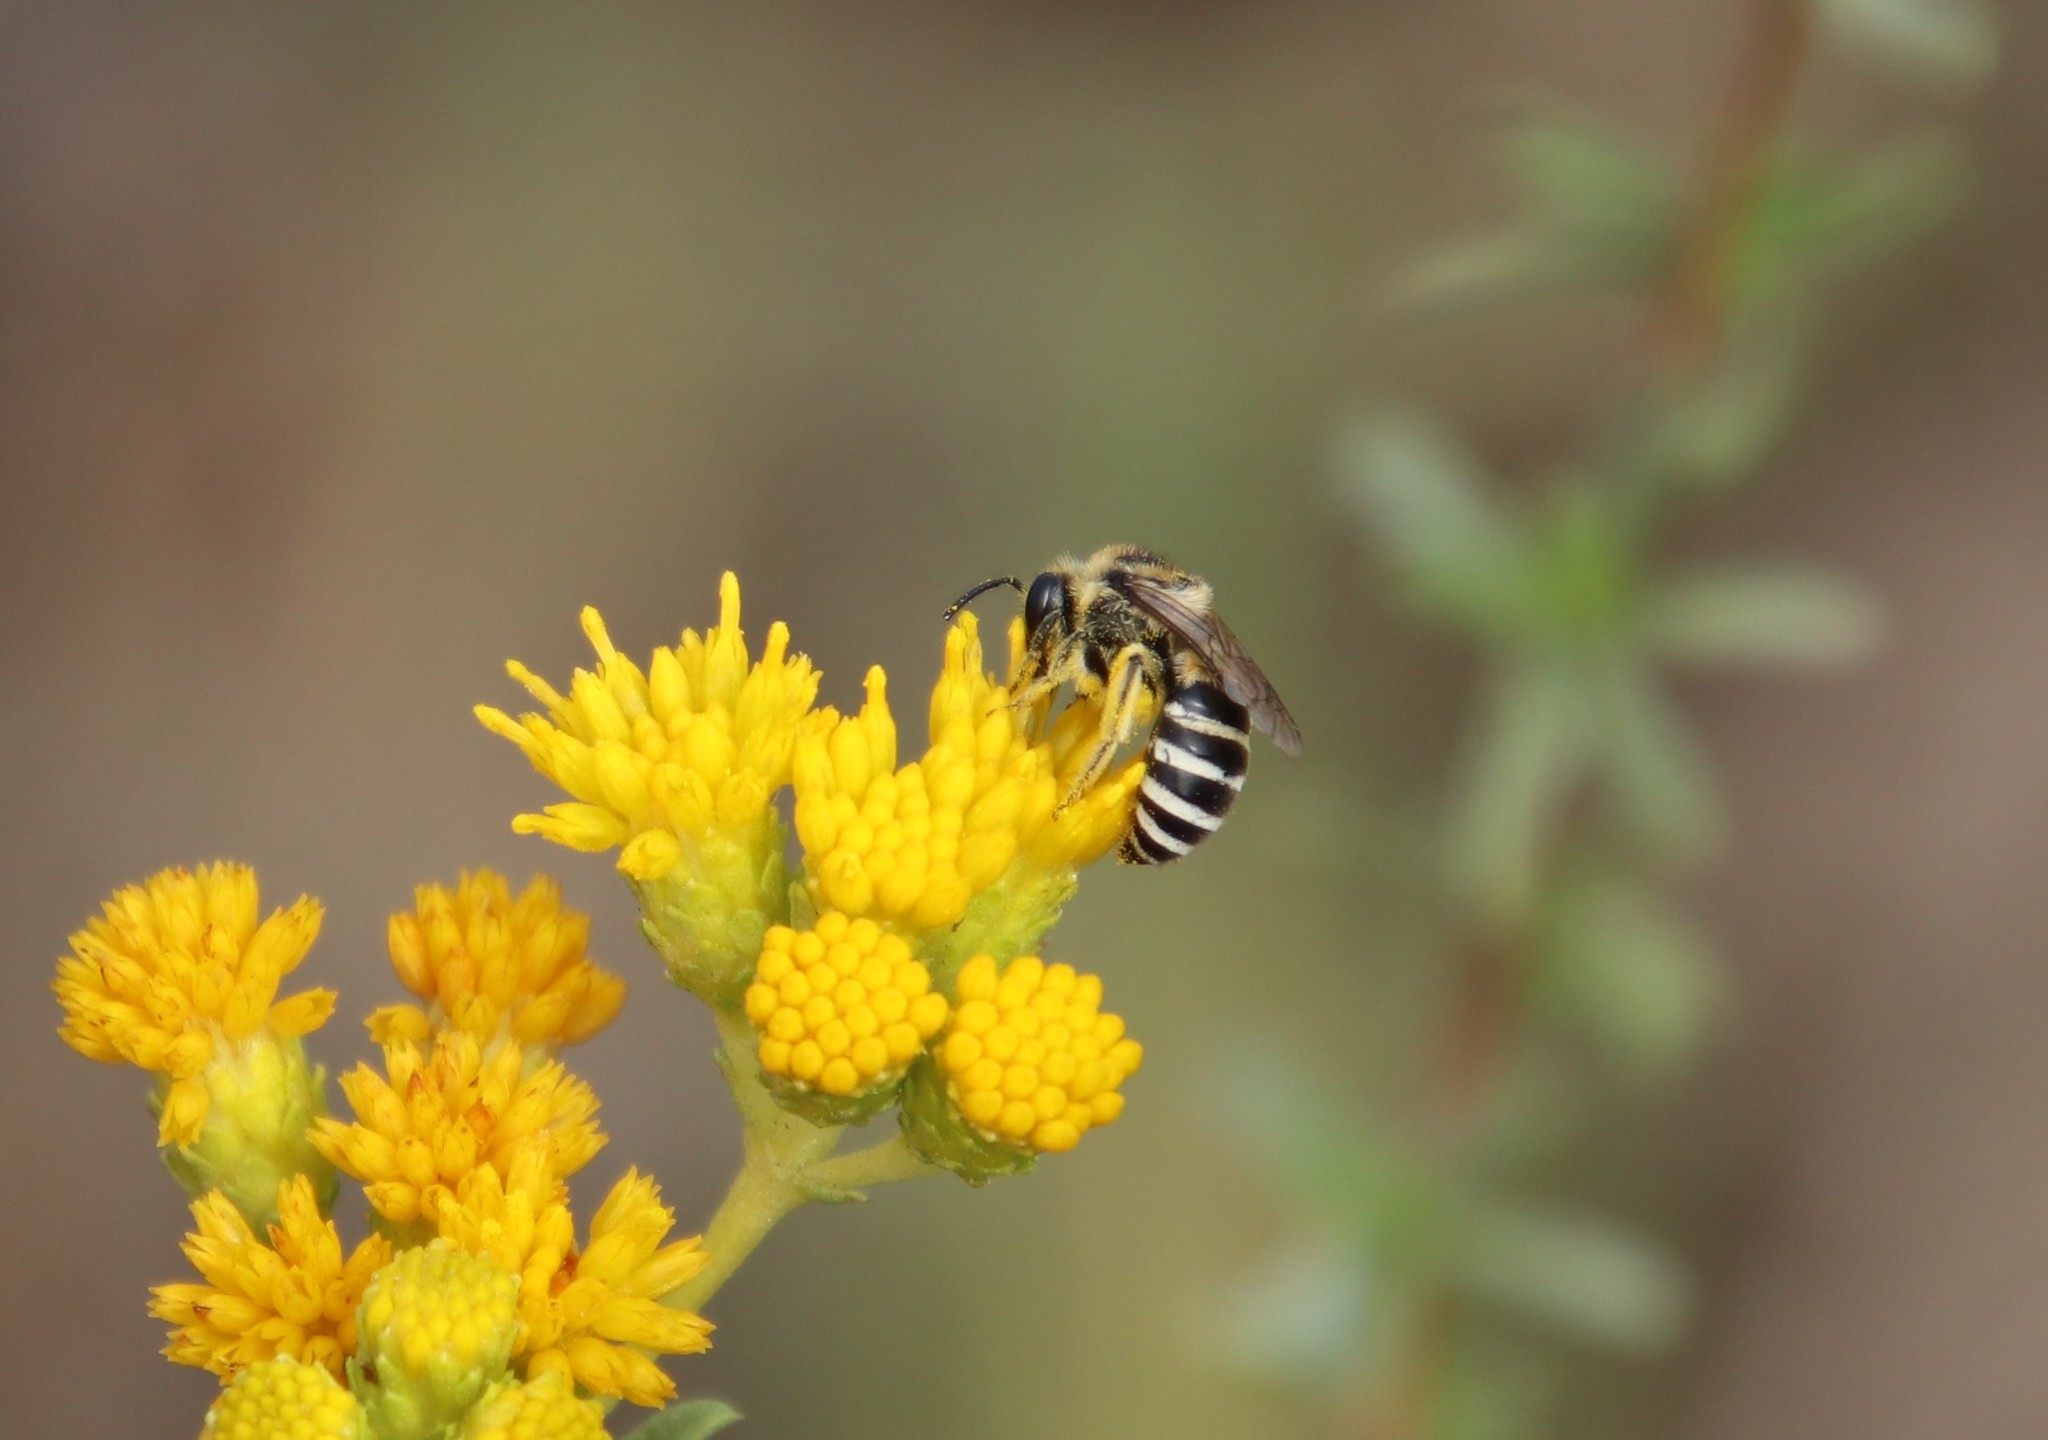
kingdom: Animalia
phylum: Arthropoda
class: Insecta
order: Hymenoptera
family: Colletidae
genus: Colletes
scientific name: Colletes
